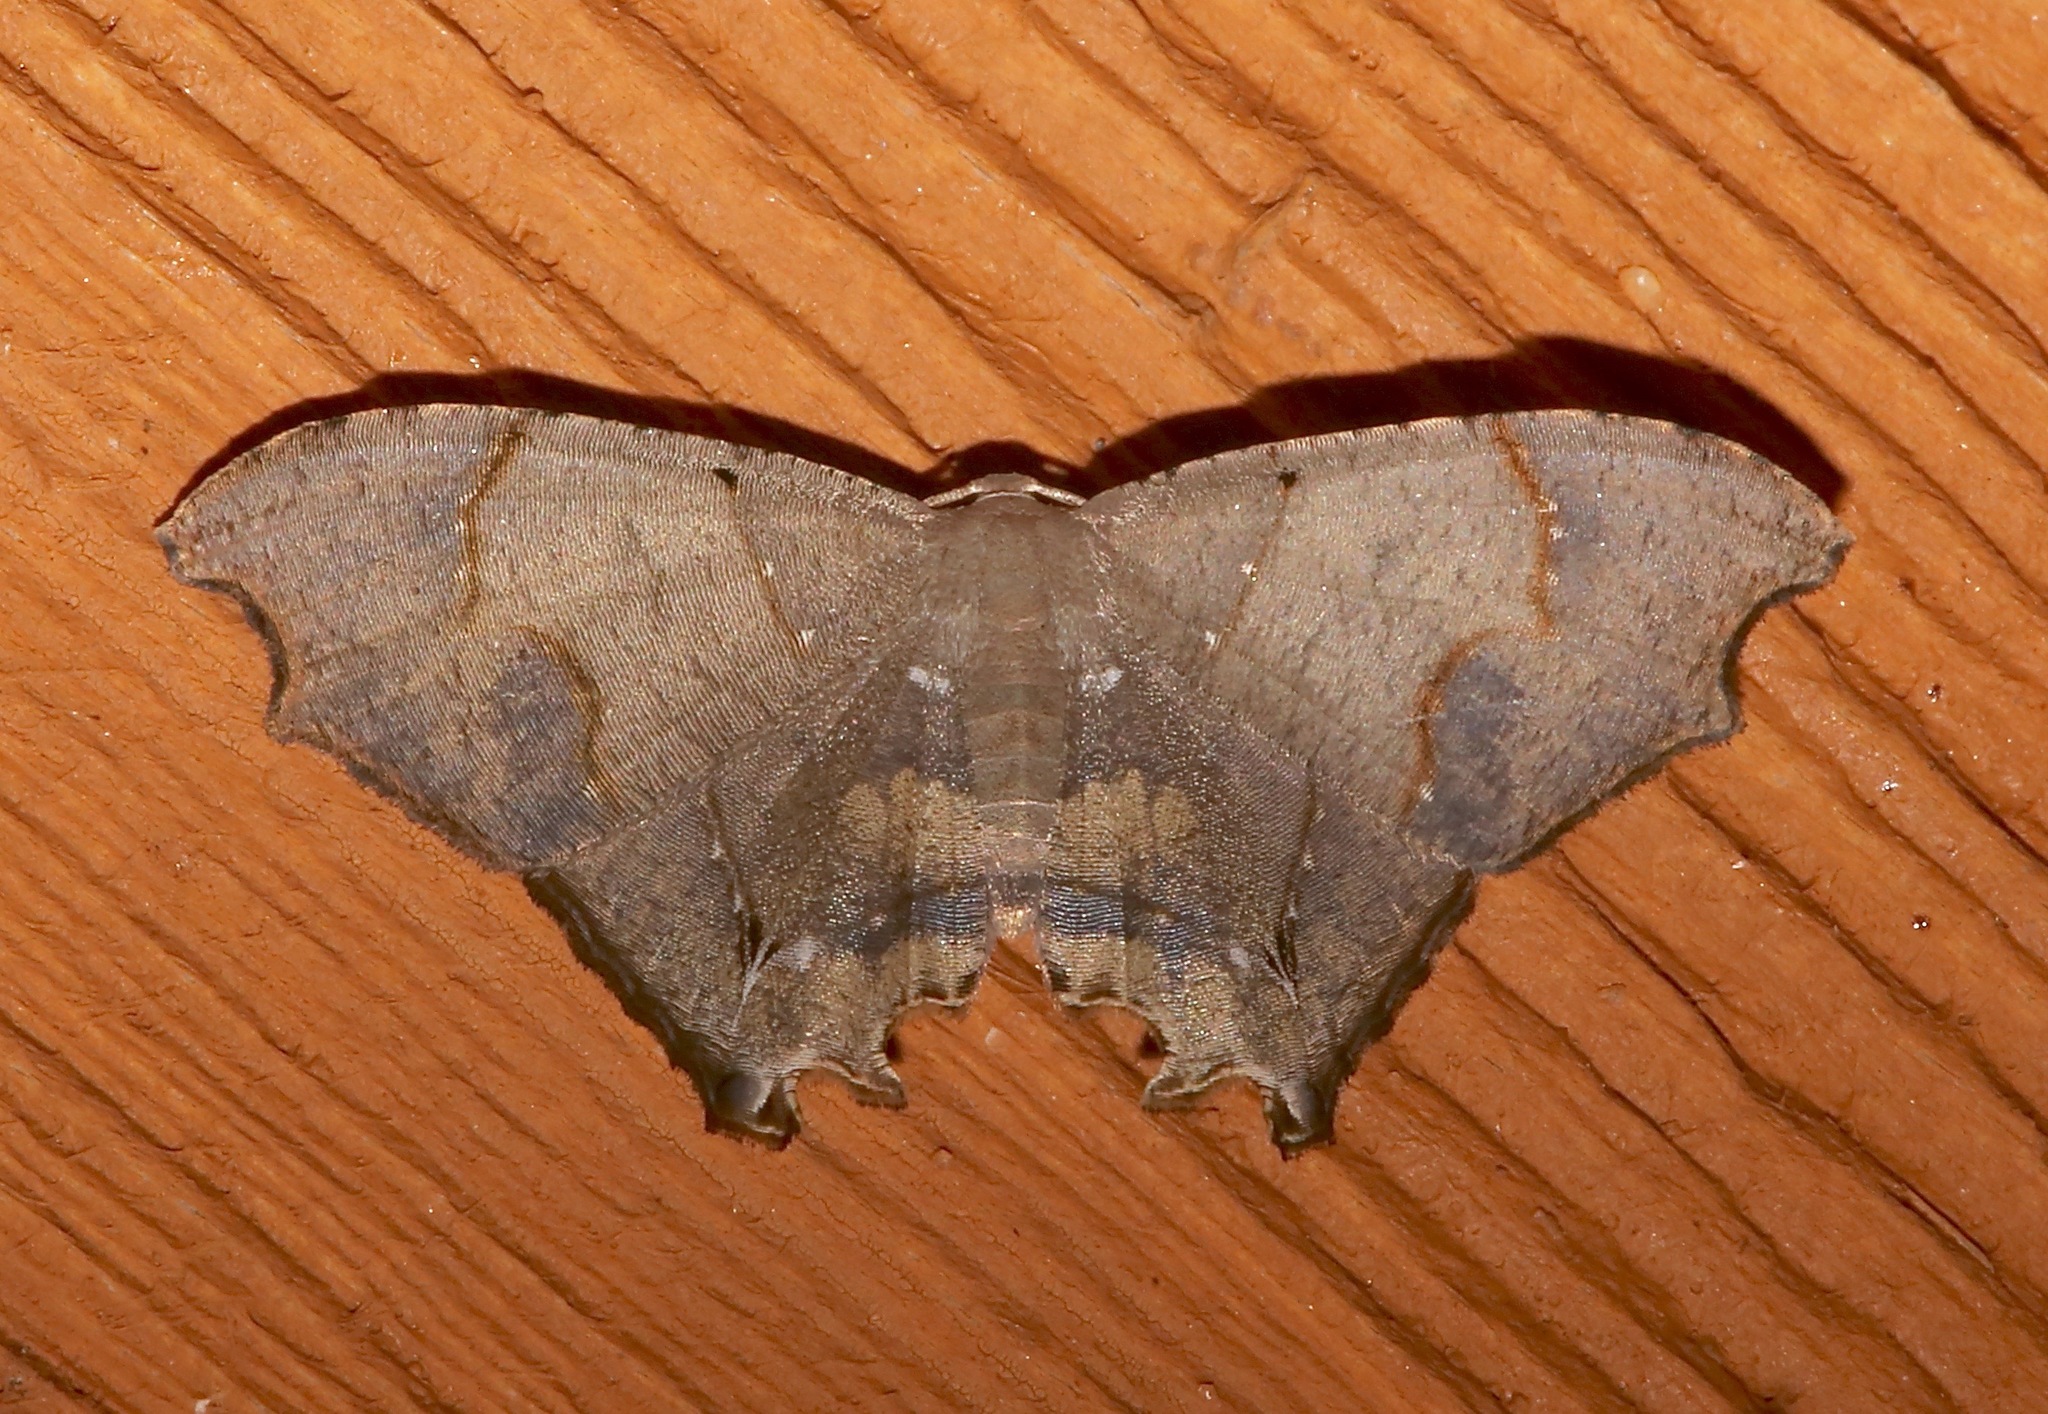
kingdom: Animalia
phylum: Arthropoda
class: Insecta
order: Lepidoptera
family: Uraniidae
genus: Trotorhombia
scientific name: Trotorhombia metachromata
